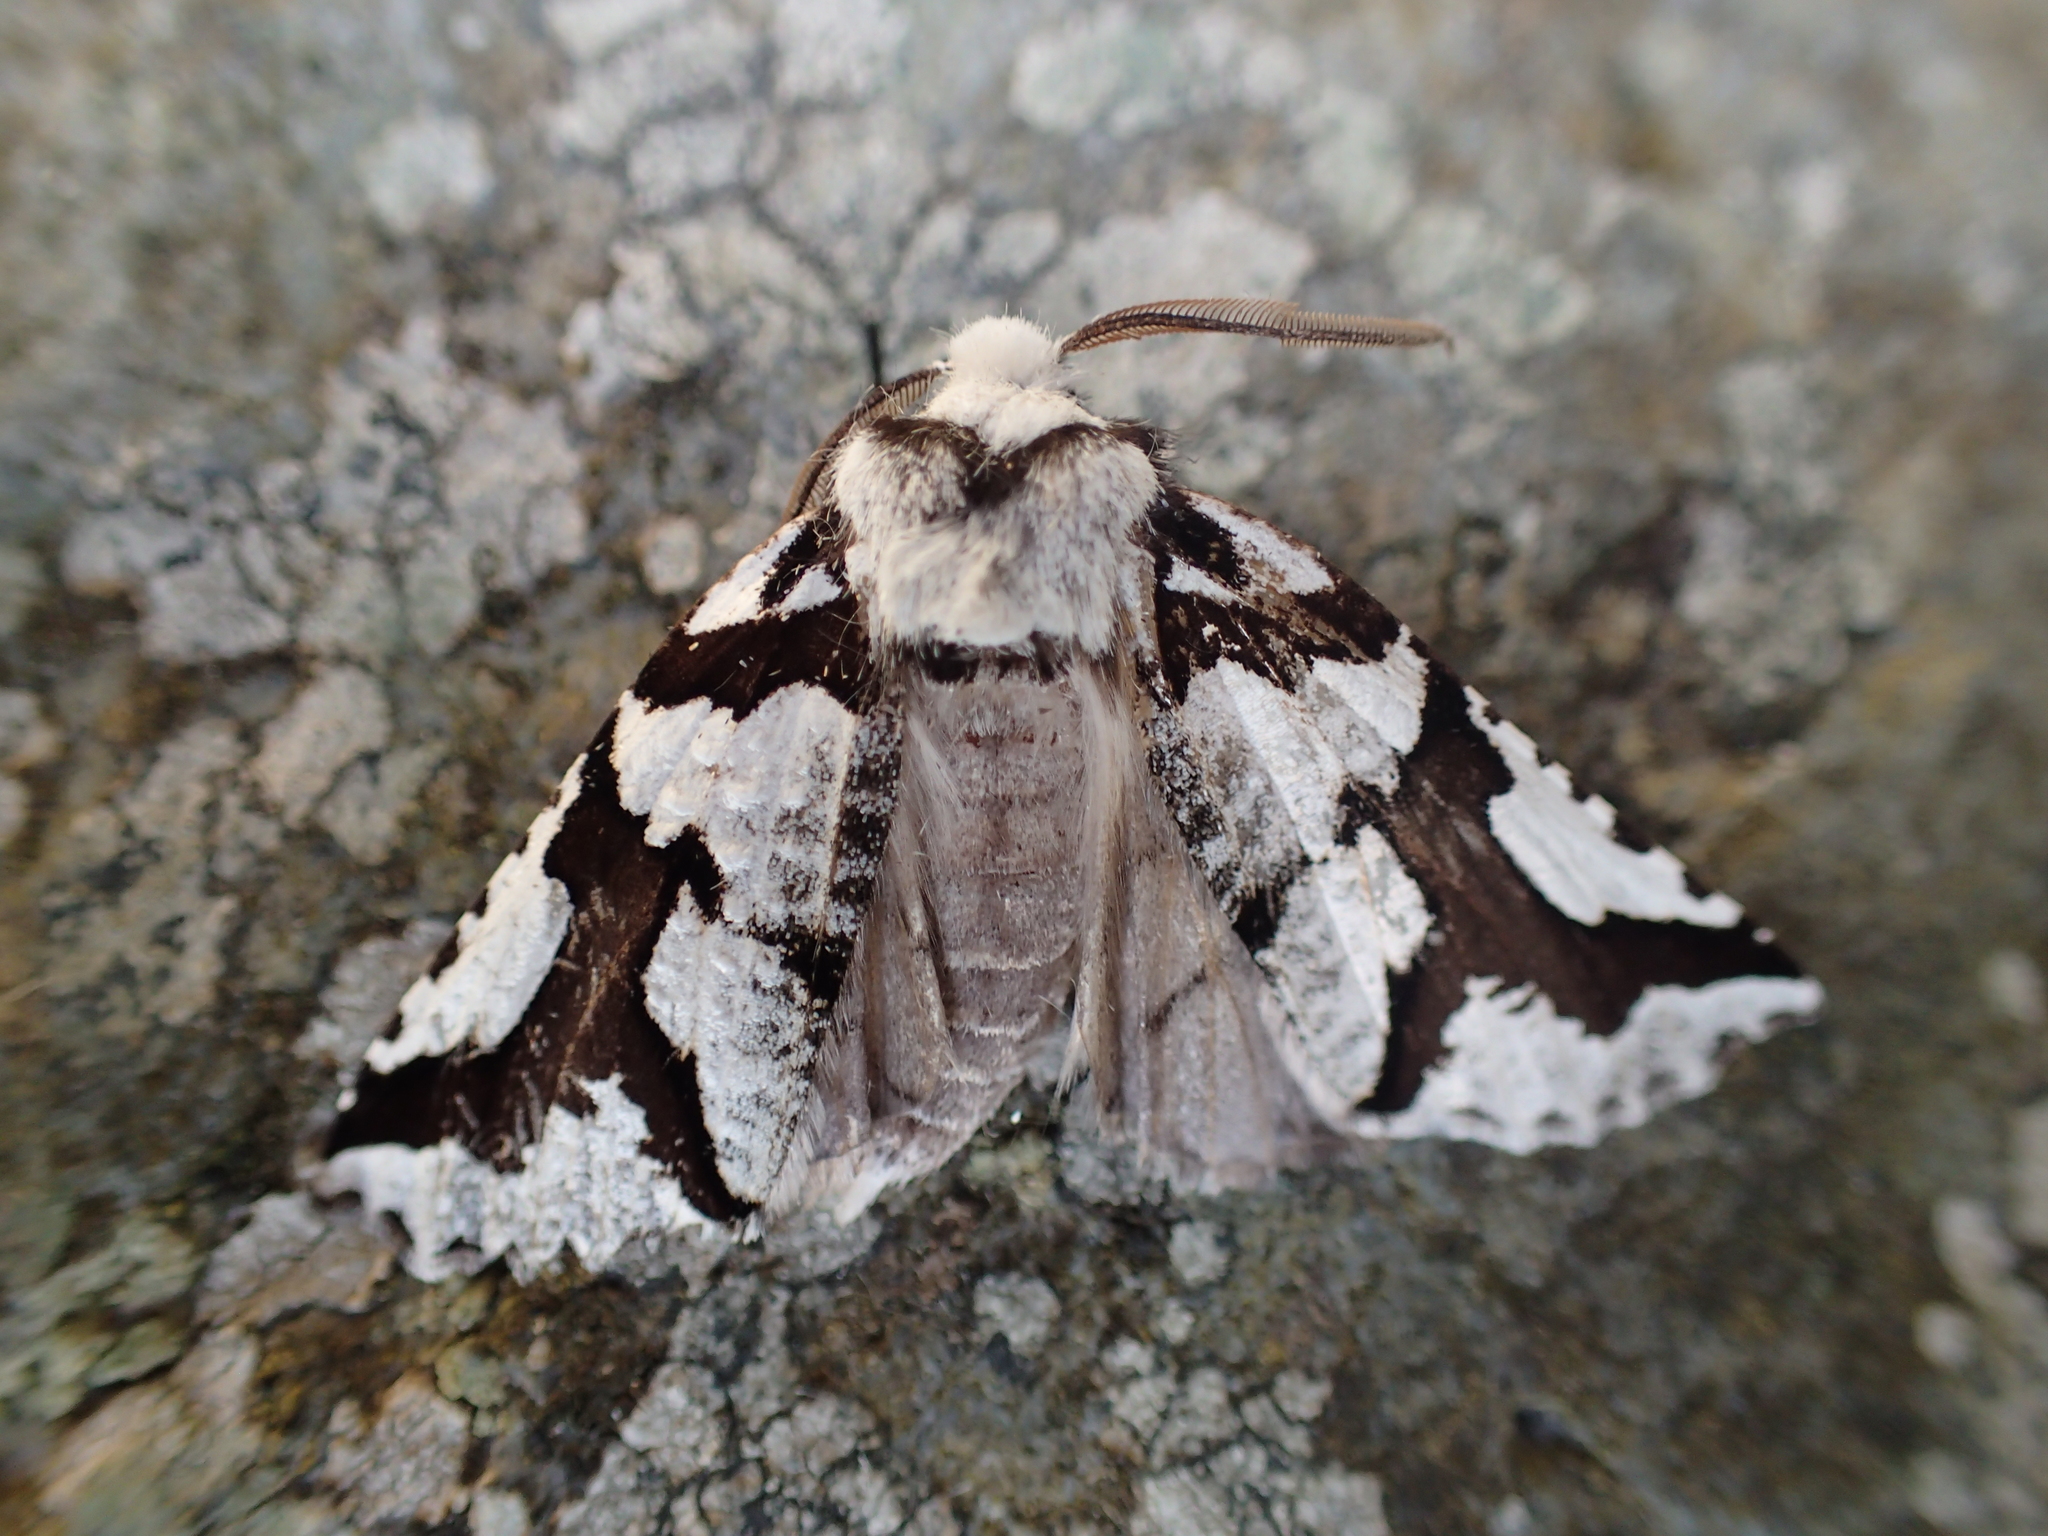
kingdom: Animalia
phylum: Arthropoda
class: Insecta
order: Lepidoptera
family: Geometridae
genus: Declana
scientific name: Declana
